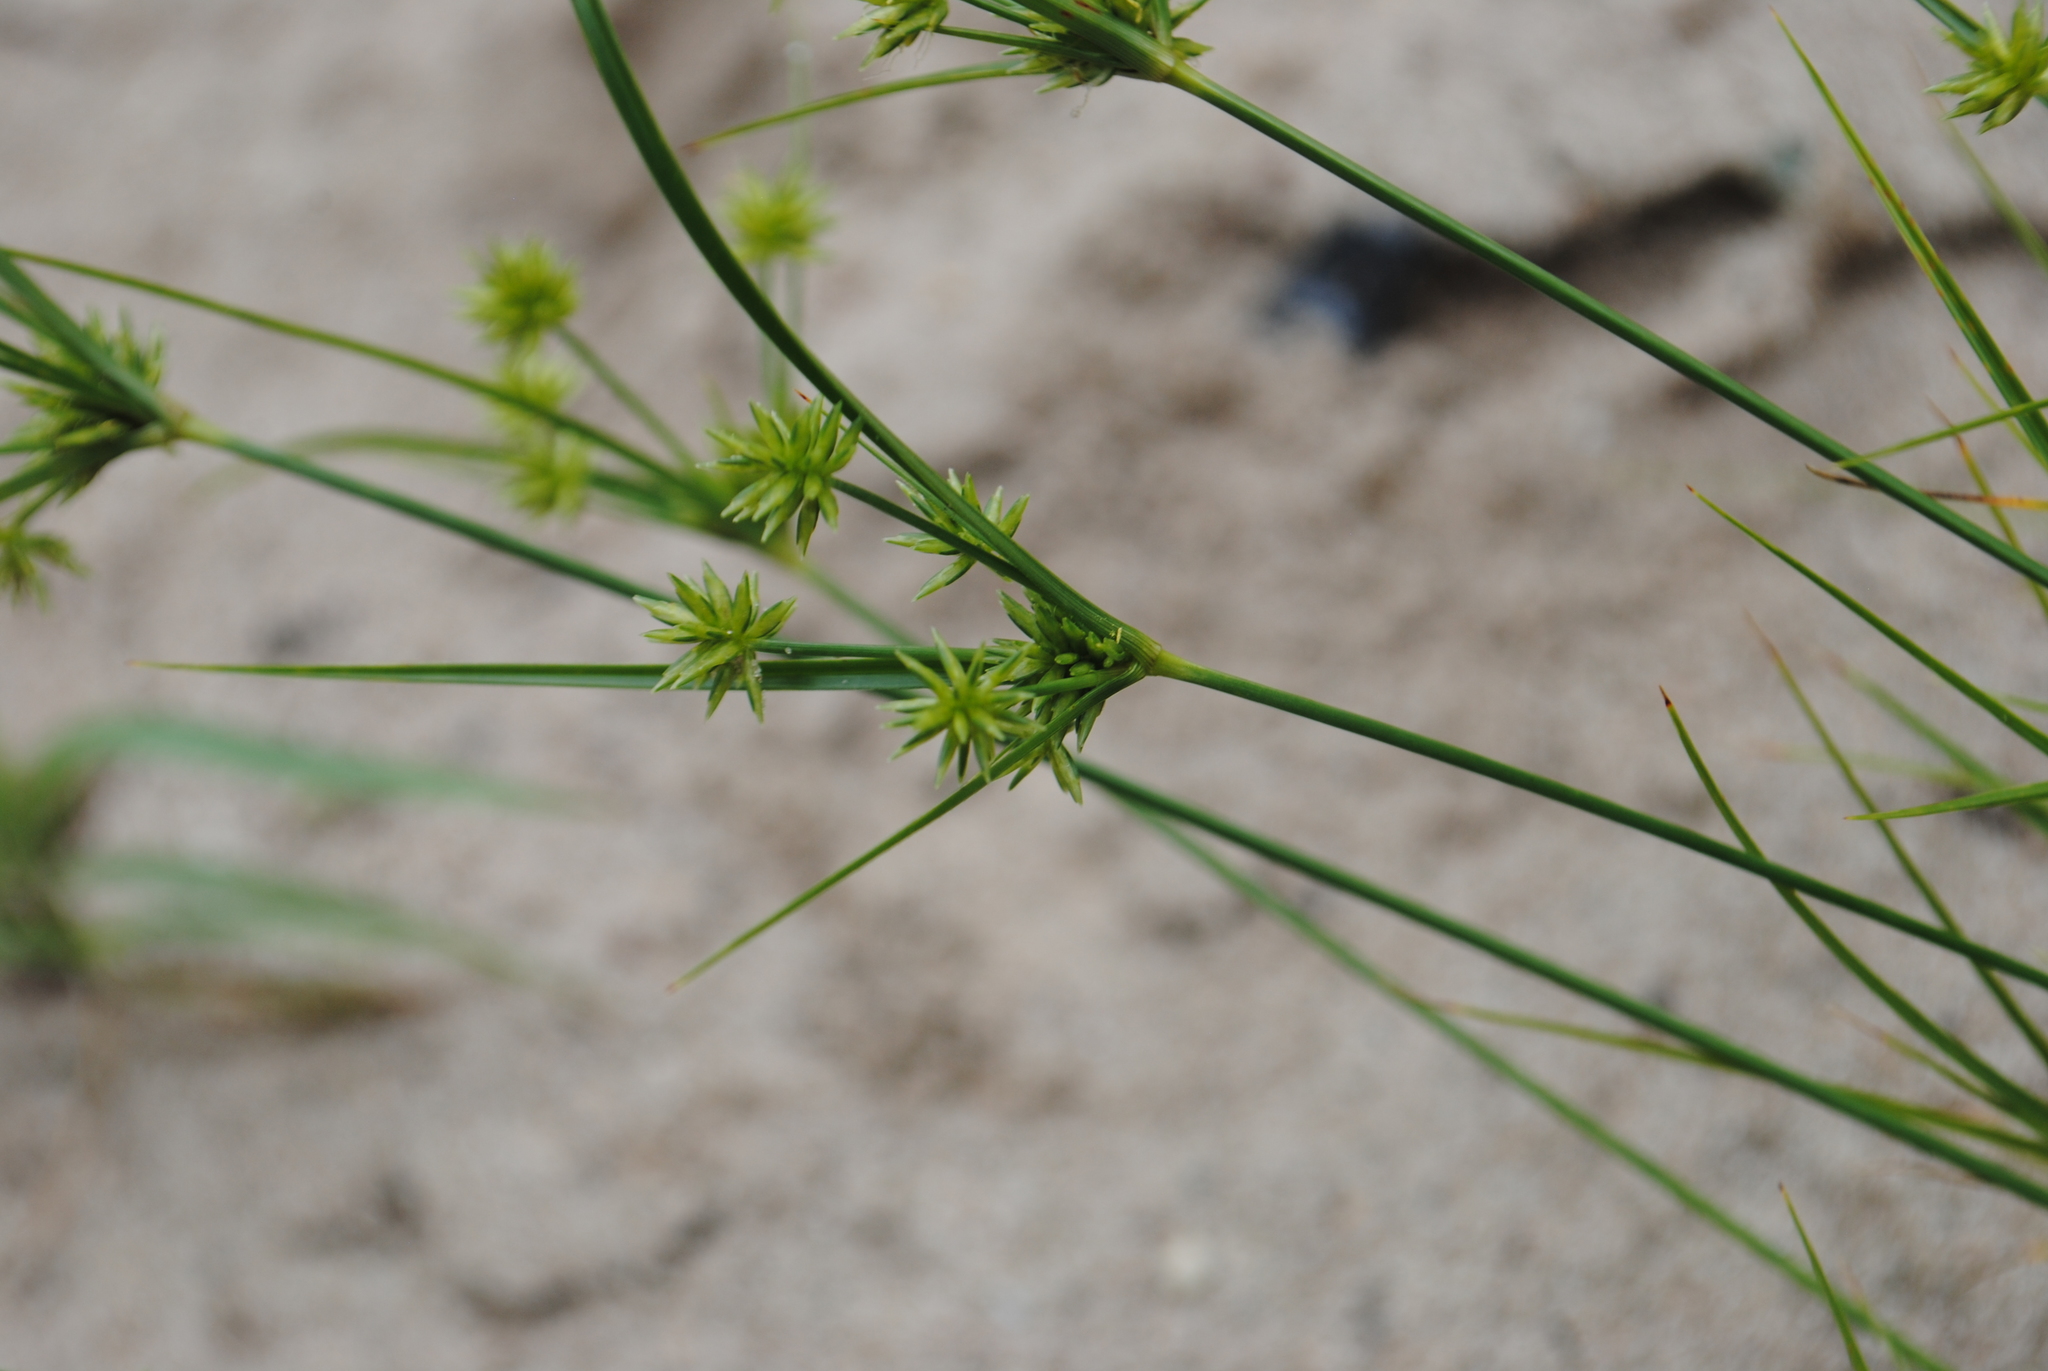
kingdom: Plantae
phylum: Tracheophyta
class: Liliopsida
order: Poales
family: Cyperaceae
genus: Cyperus
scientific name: Cyperus grayi
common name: Gray's flat sedge
